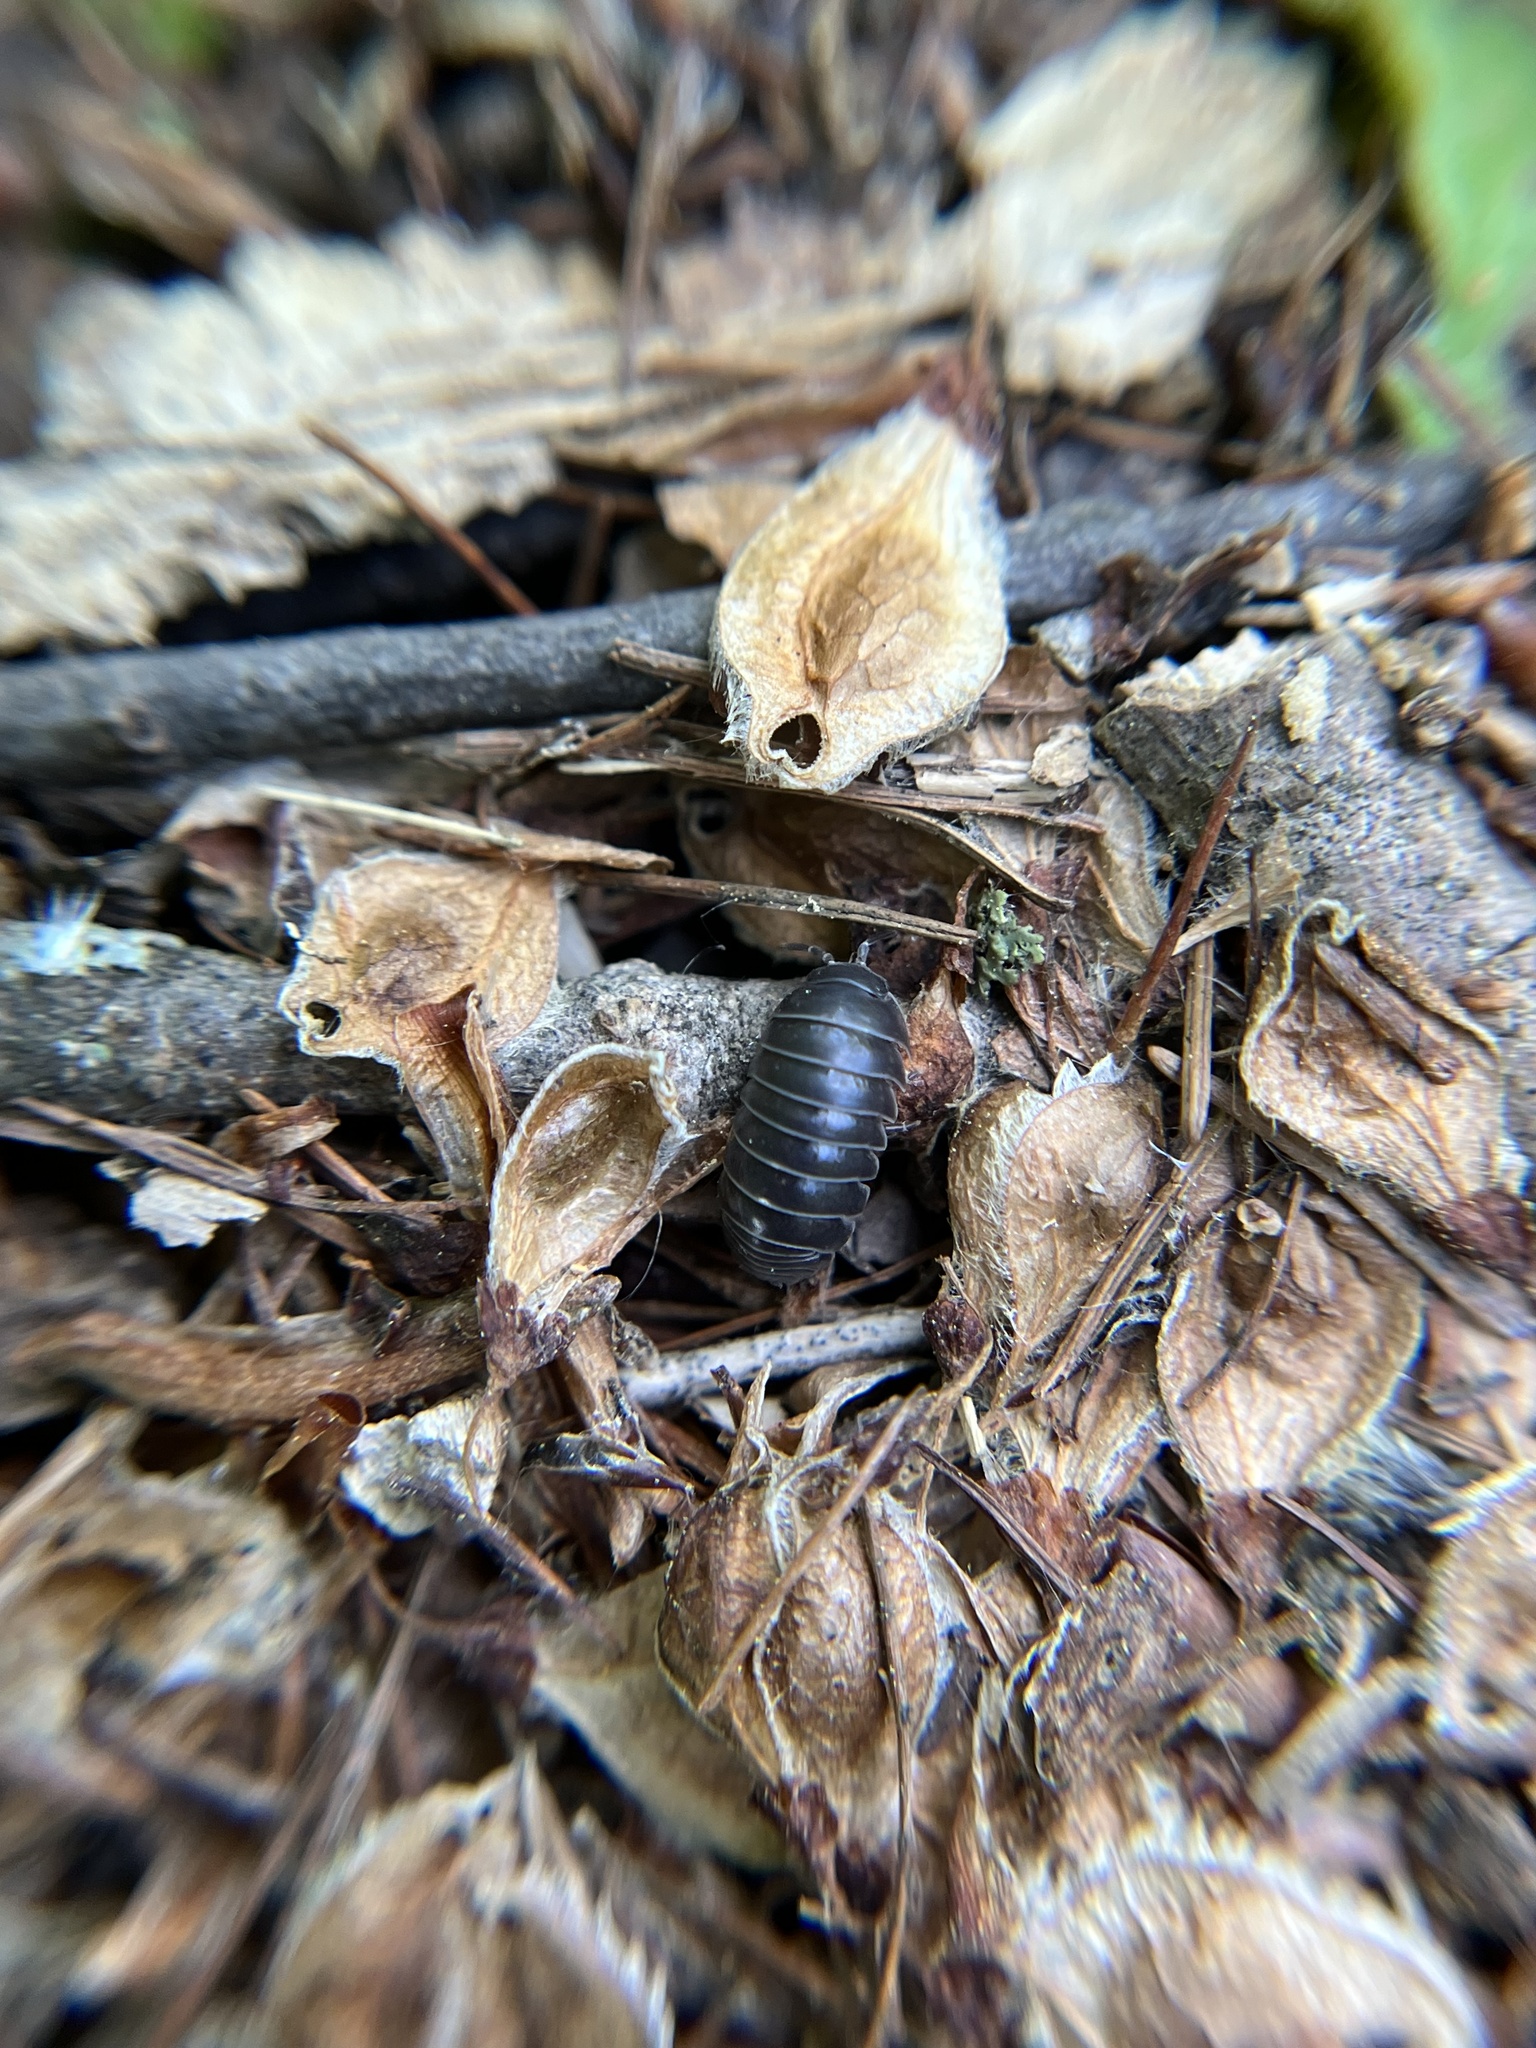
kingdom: Animalia
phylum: Arthropoda
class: Malacostraca
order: Isopoda
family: Armadillidiidae
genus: Armadillidium
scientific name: Armadillidium vulgare
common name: Common pill woodlouse
